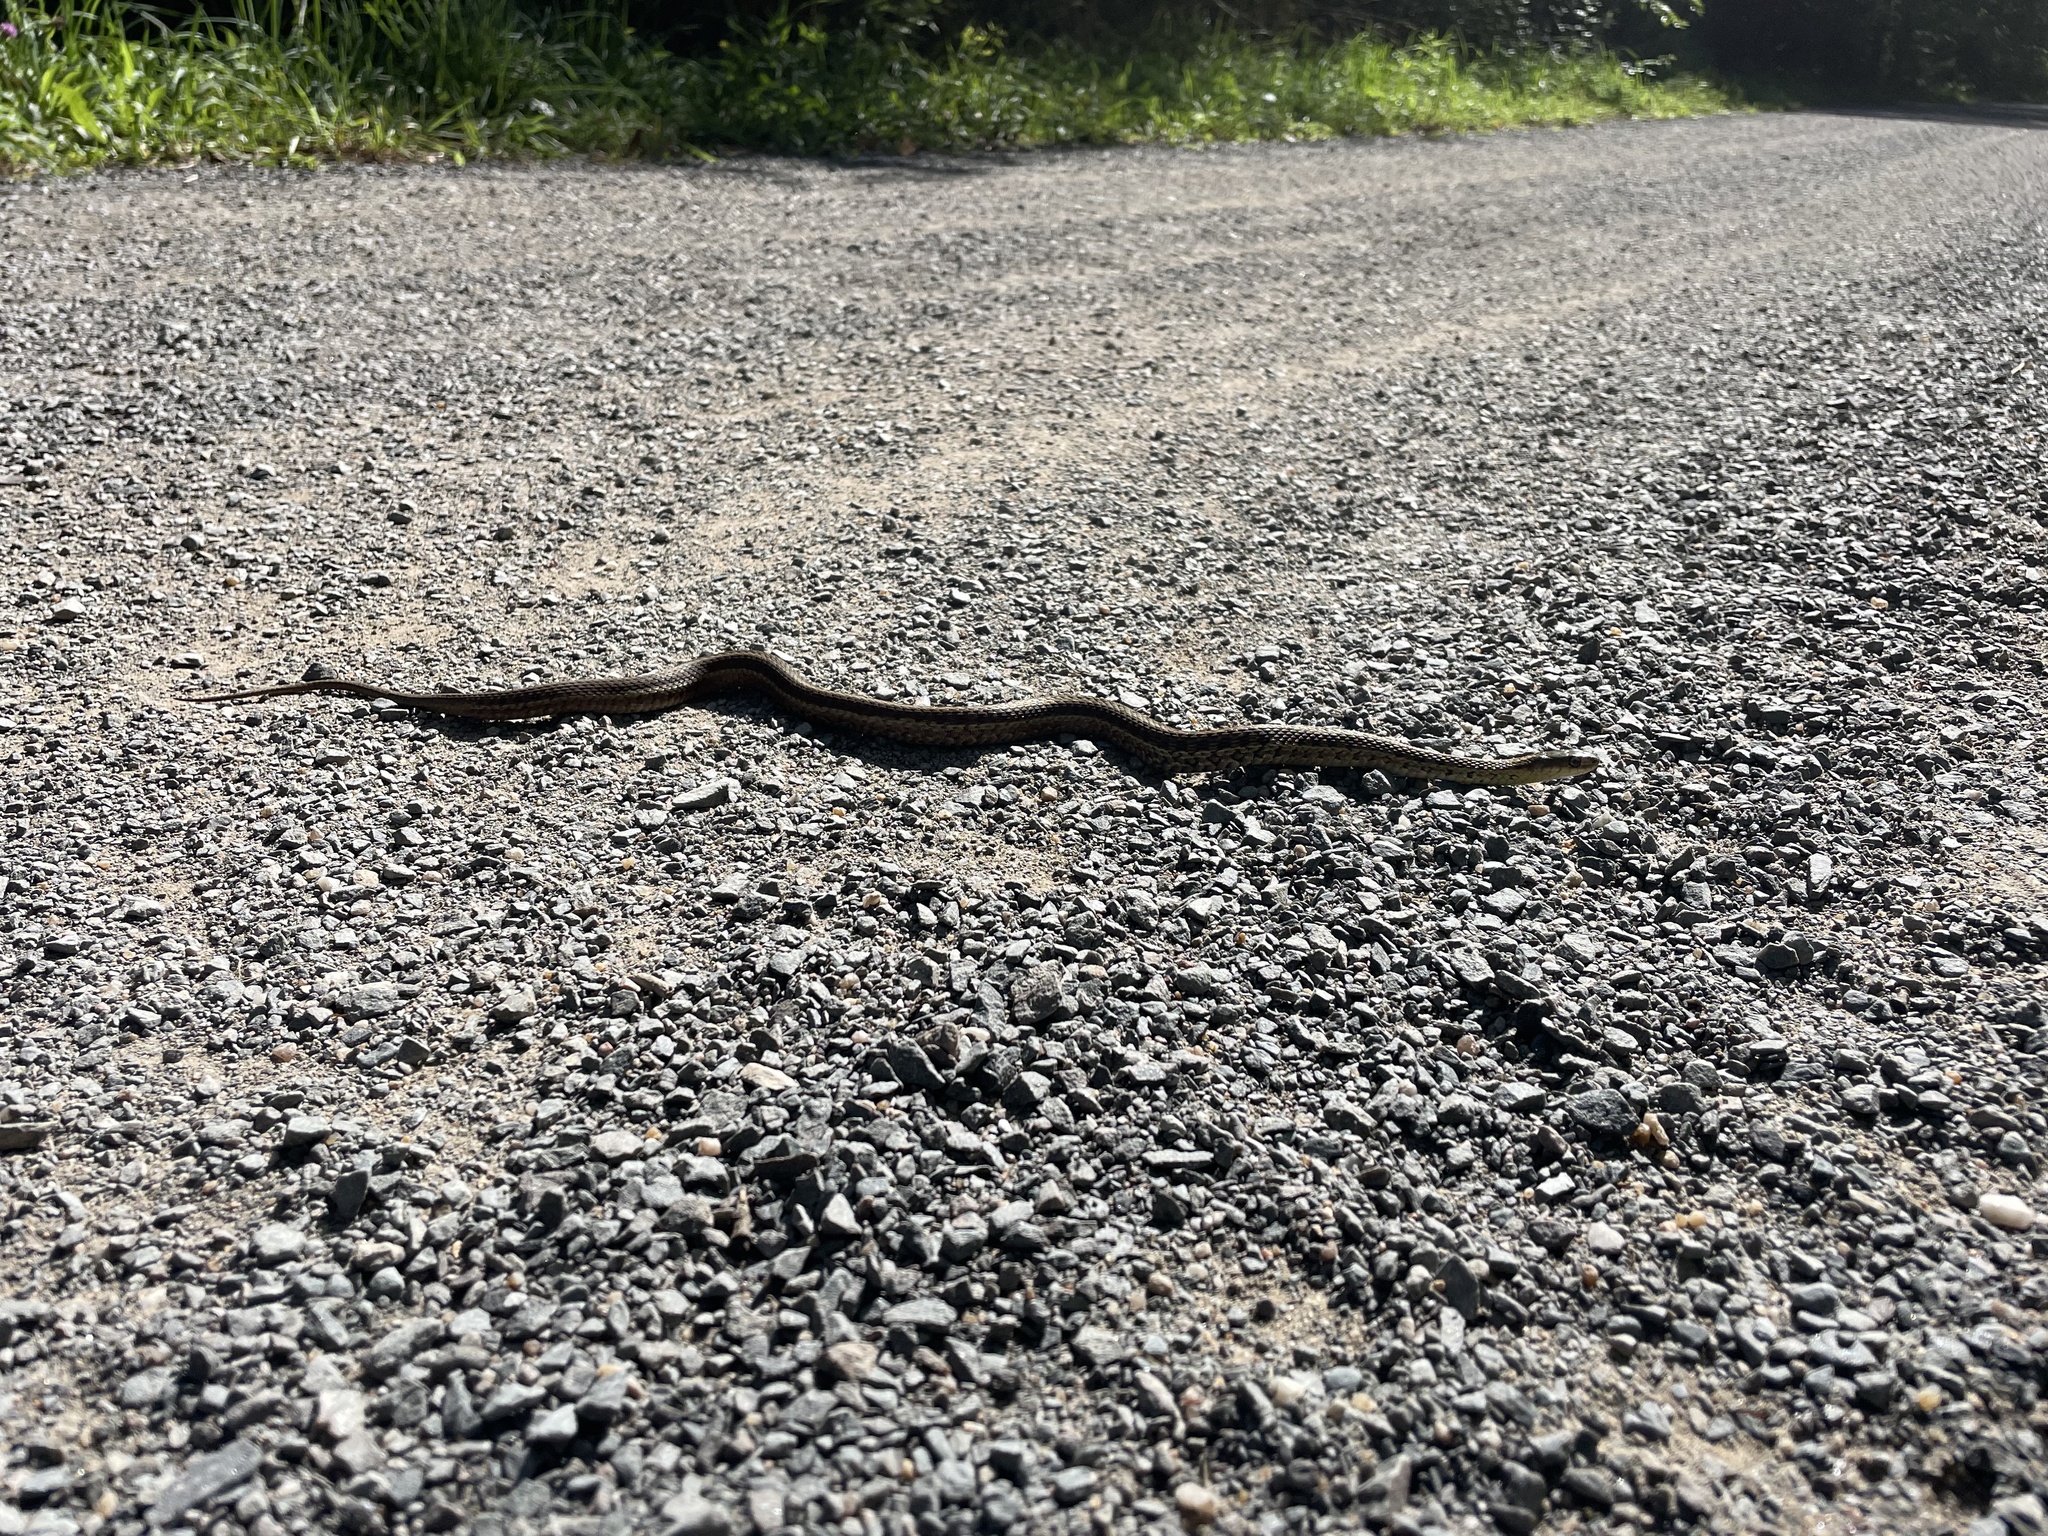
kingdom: Animalia
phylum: Chordata
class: Squamata
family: Colubridae
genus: Thamnophis
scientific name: Thamnophis sirtalis
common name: Common garter snake
